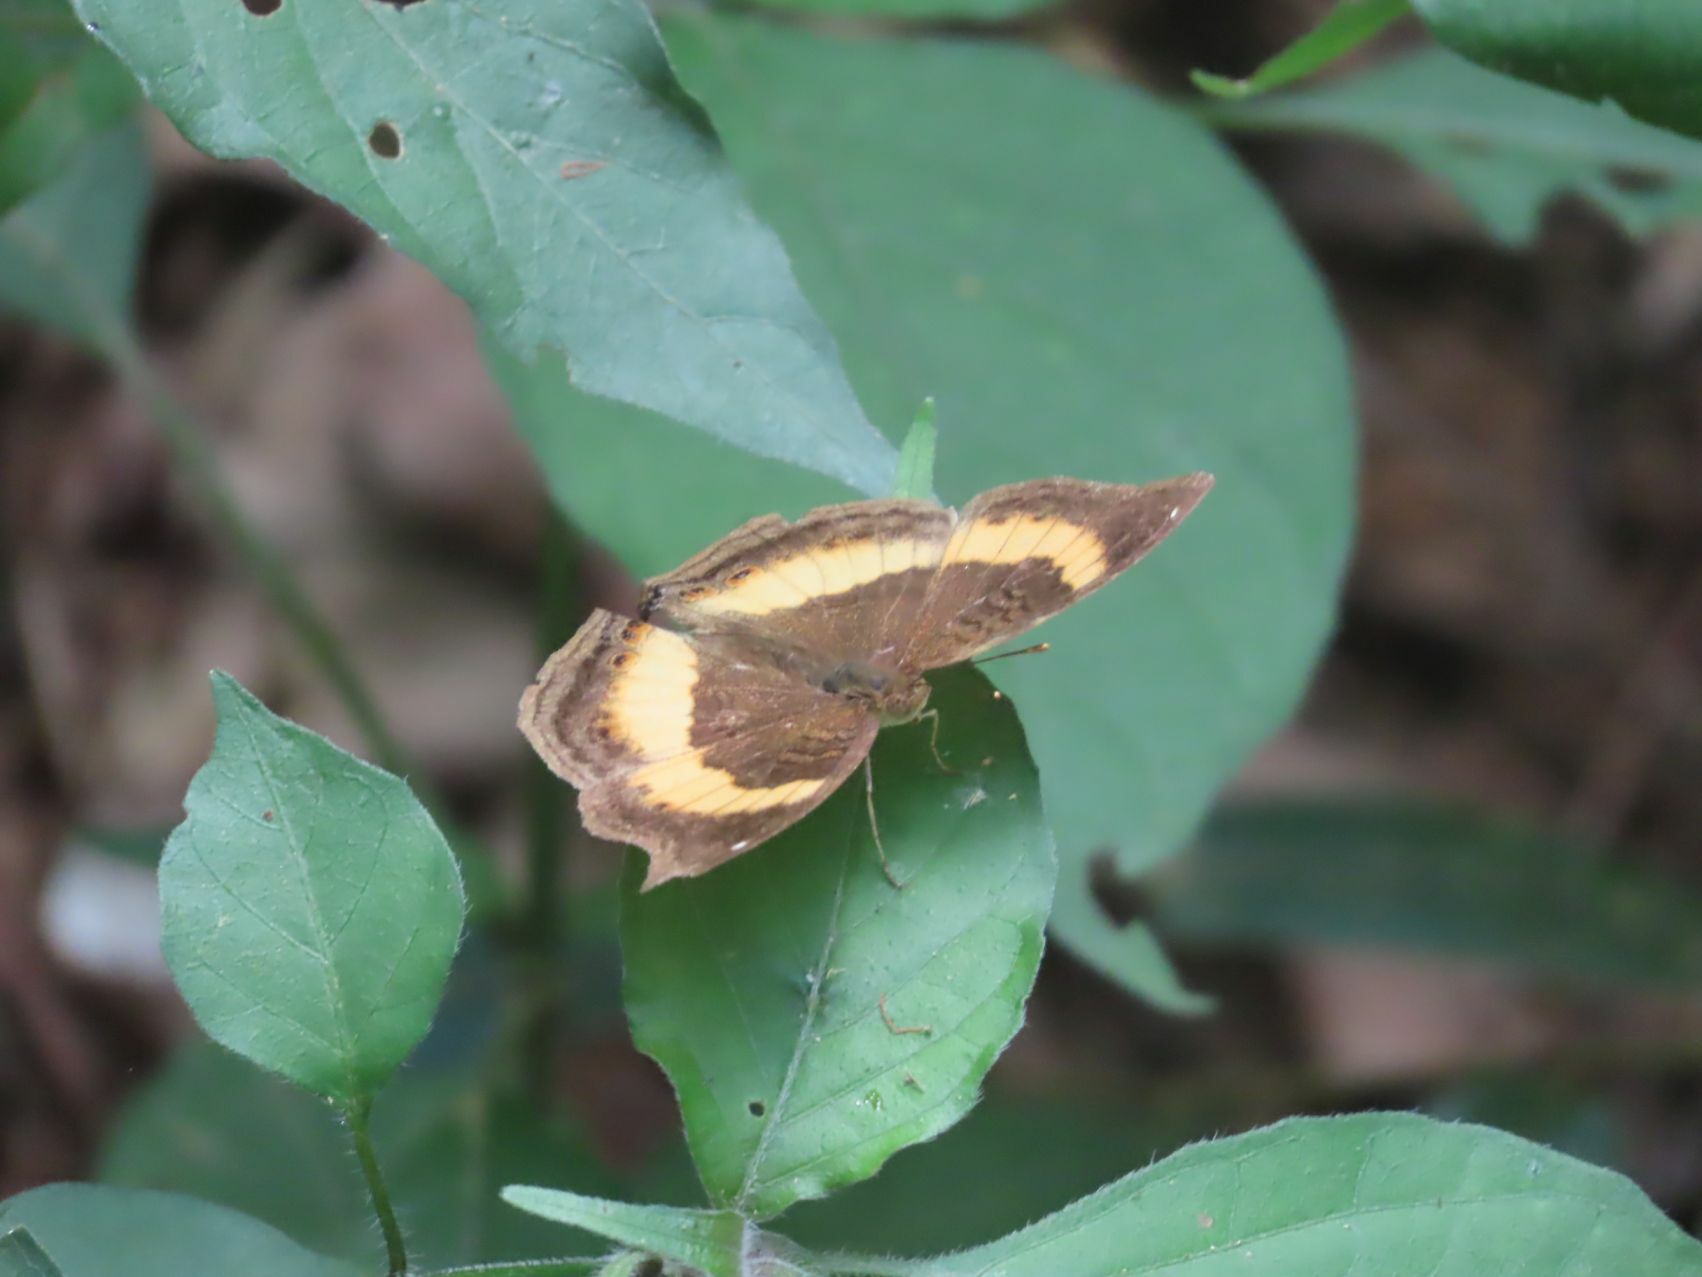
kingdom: Animalia
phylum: Arthropoda
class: Insecta
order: Lepidoptera
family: Nymphalidae
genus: Junonia
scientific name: Junonia terea
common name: Soldier pansy
